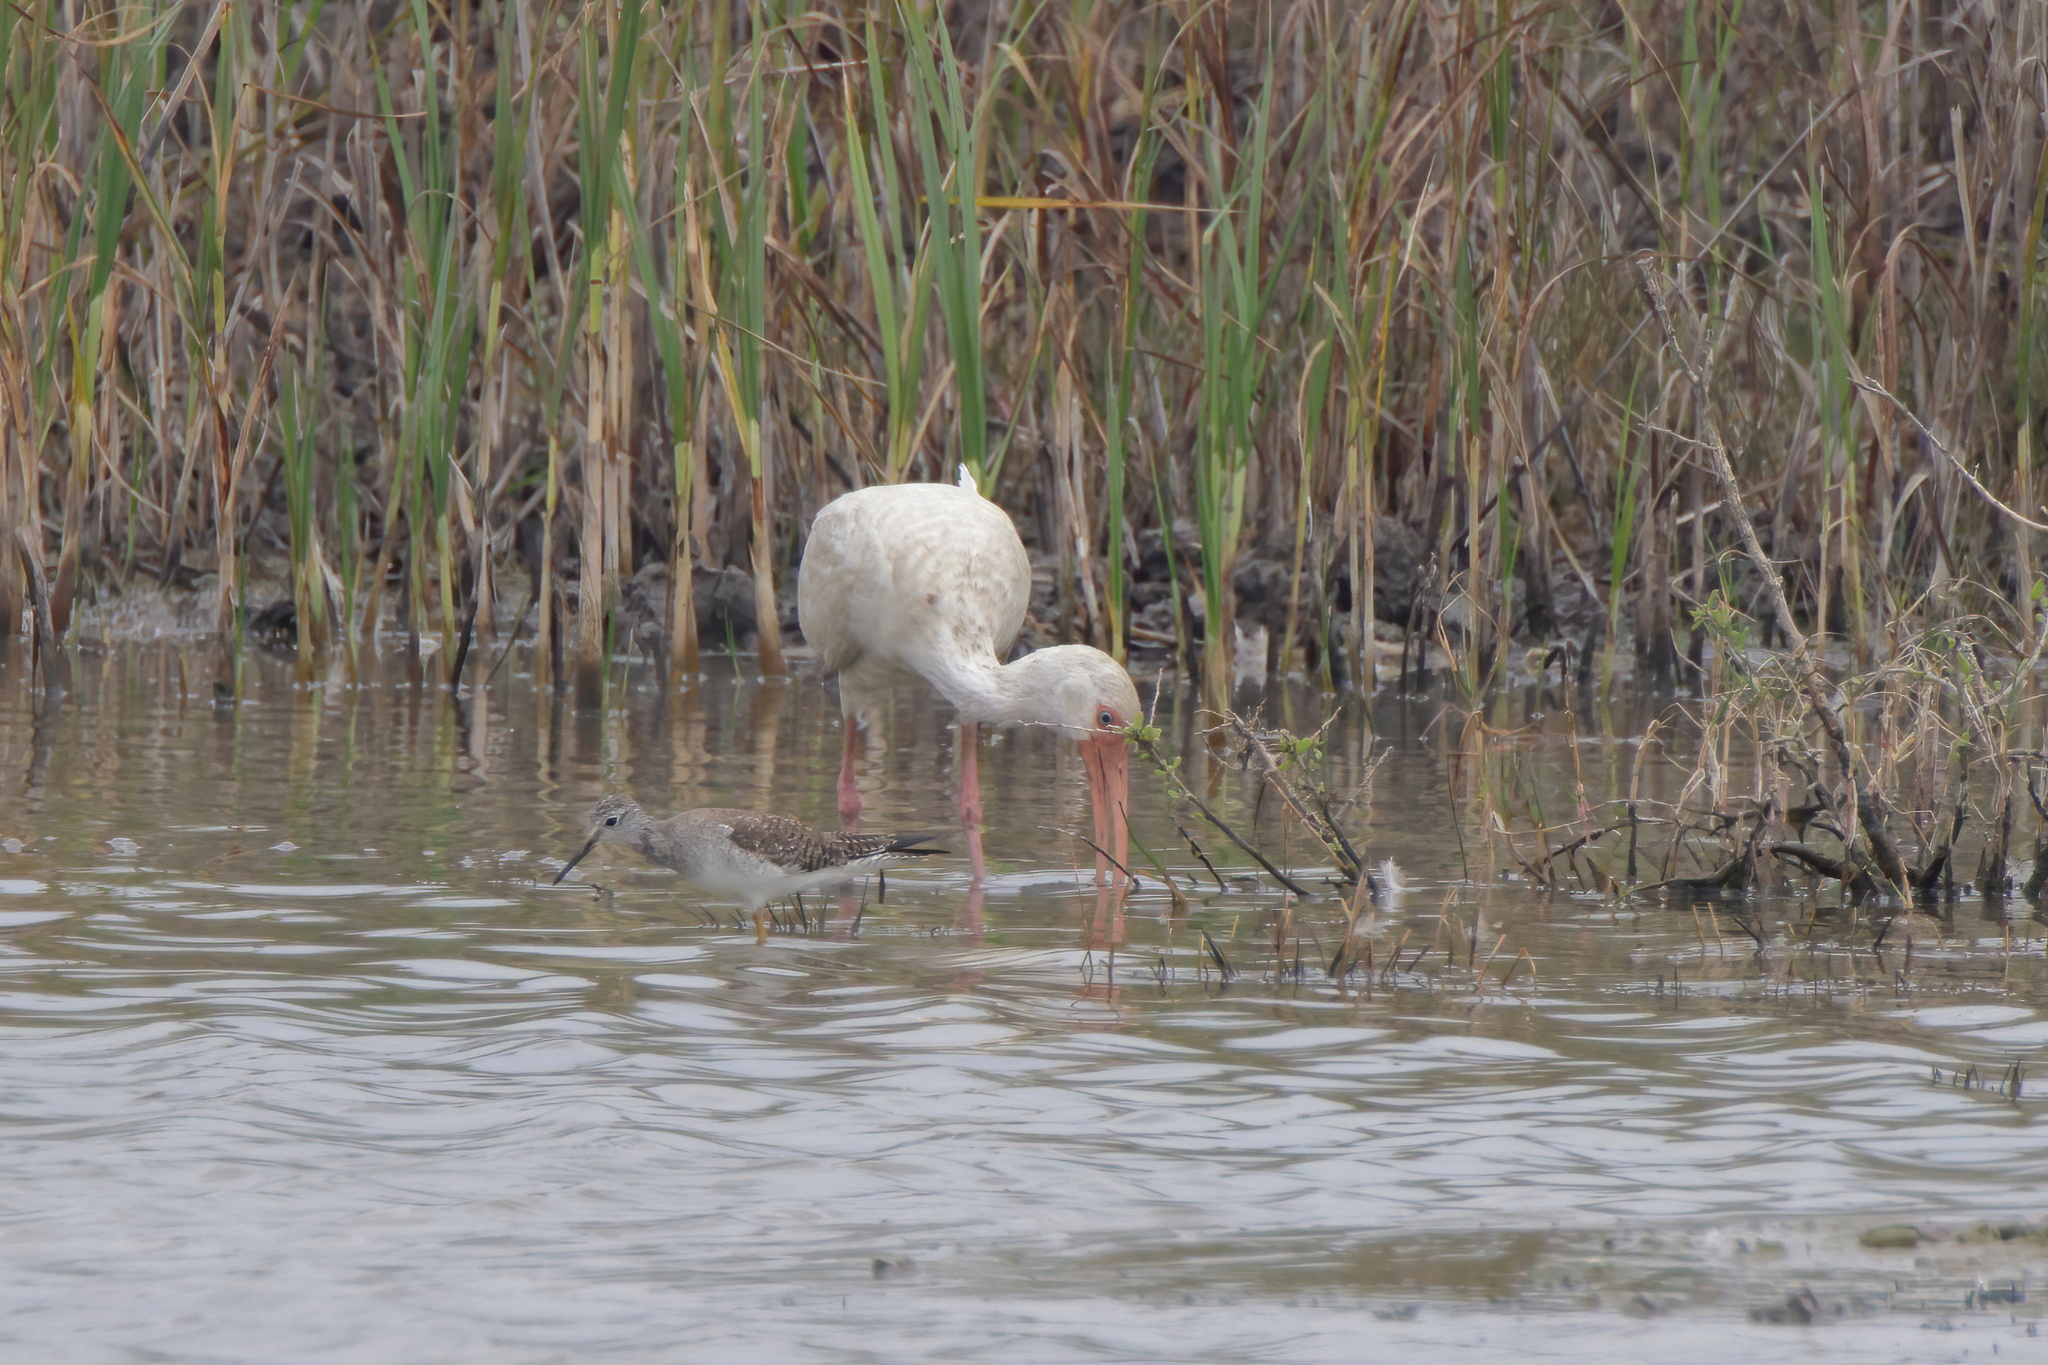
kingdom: Animalia
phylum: Chordata
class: Aves
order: Pelecaniformes
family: Threskiornithidae
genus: Eudocimus
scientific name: Eudocimus albus
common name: White ibis
